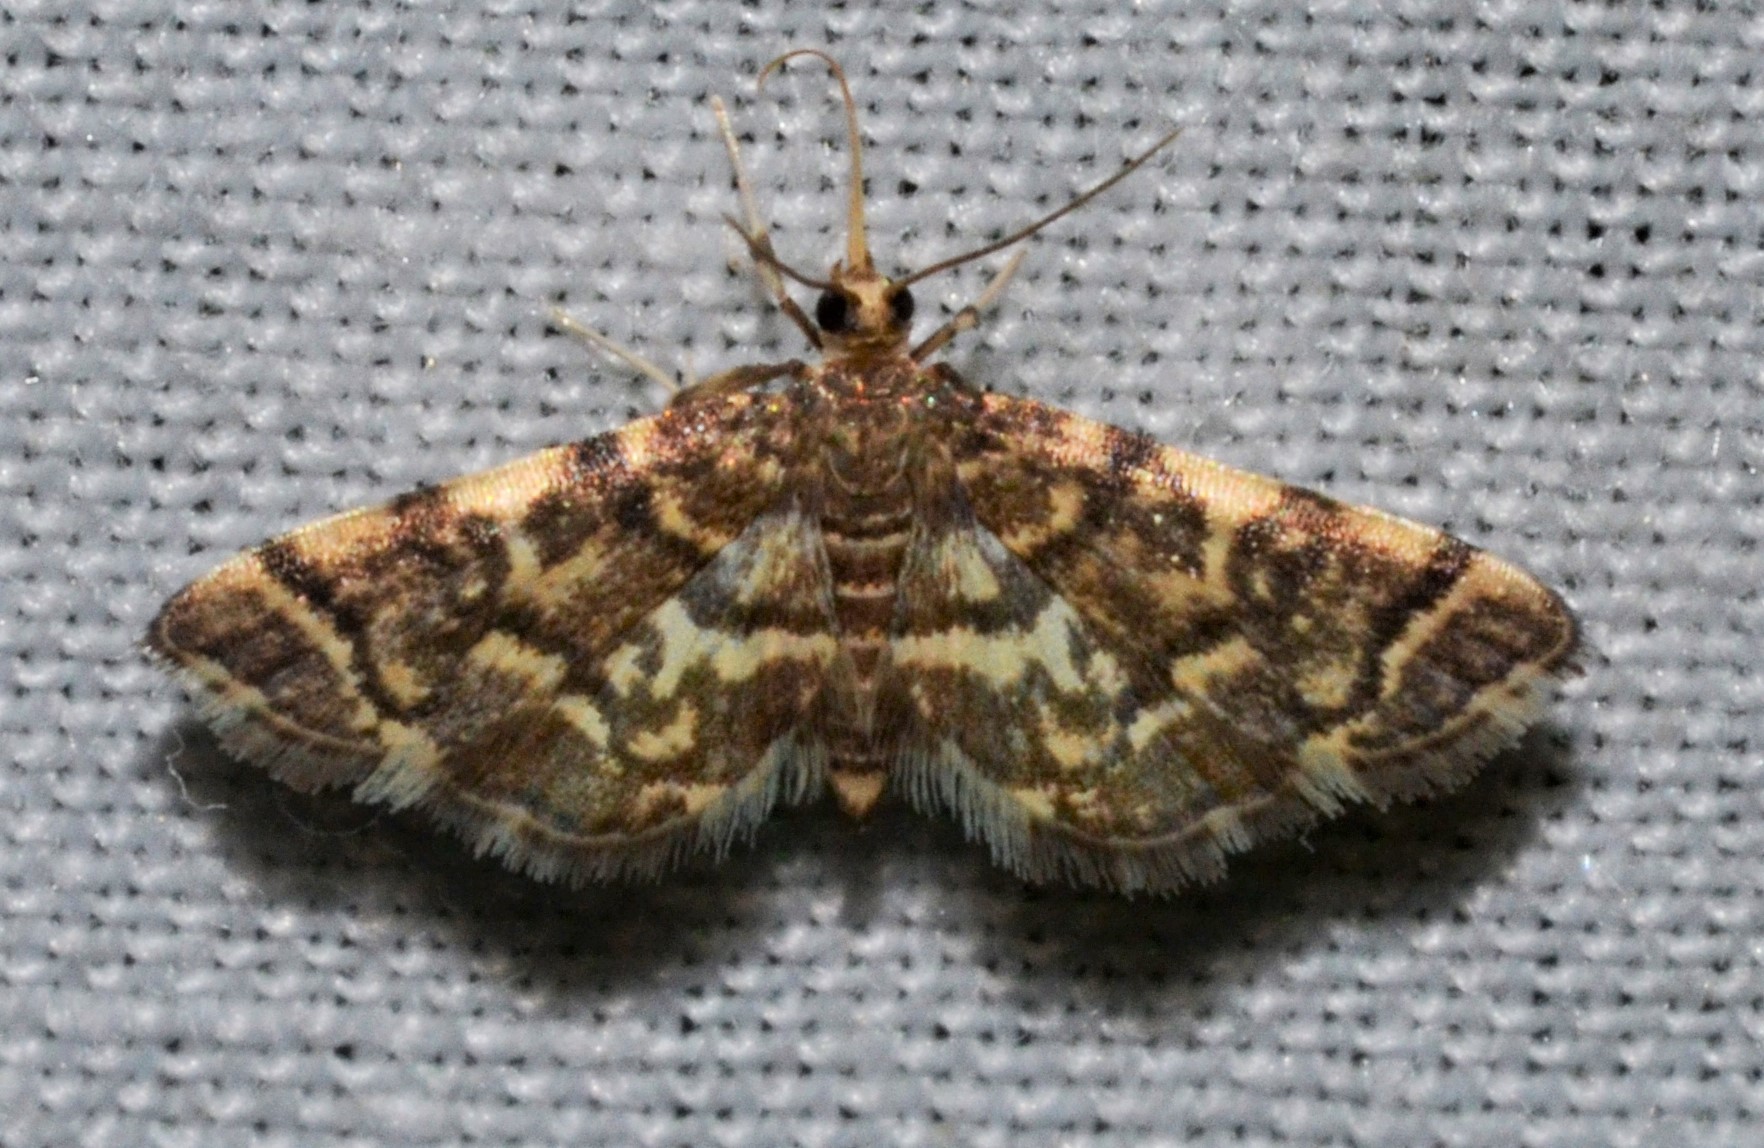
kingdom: Animalia
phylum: Arthropoda
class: Insecta
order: Lepidoptera
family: Crambidae
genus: Anageshna
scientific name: Anageshna primordialis
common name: Yellow-spotted webworm moth
